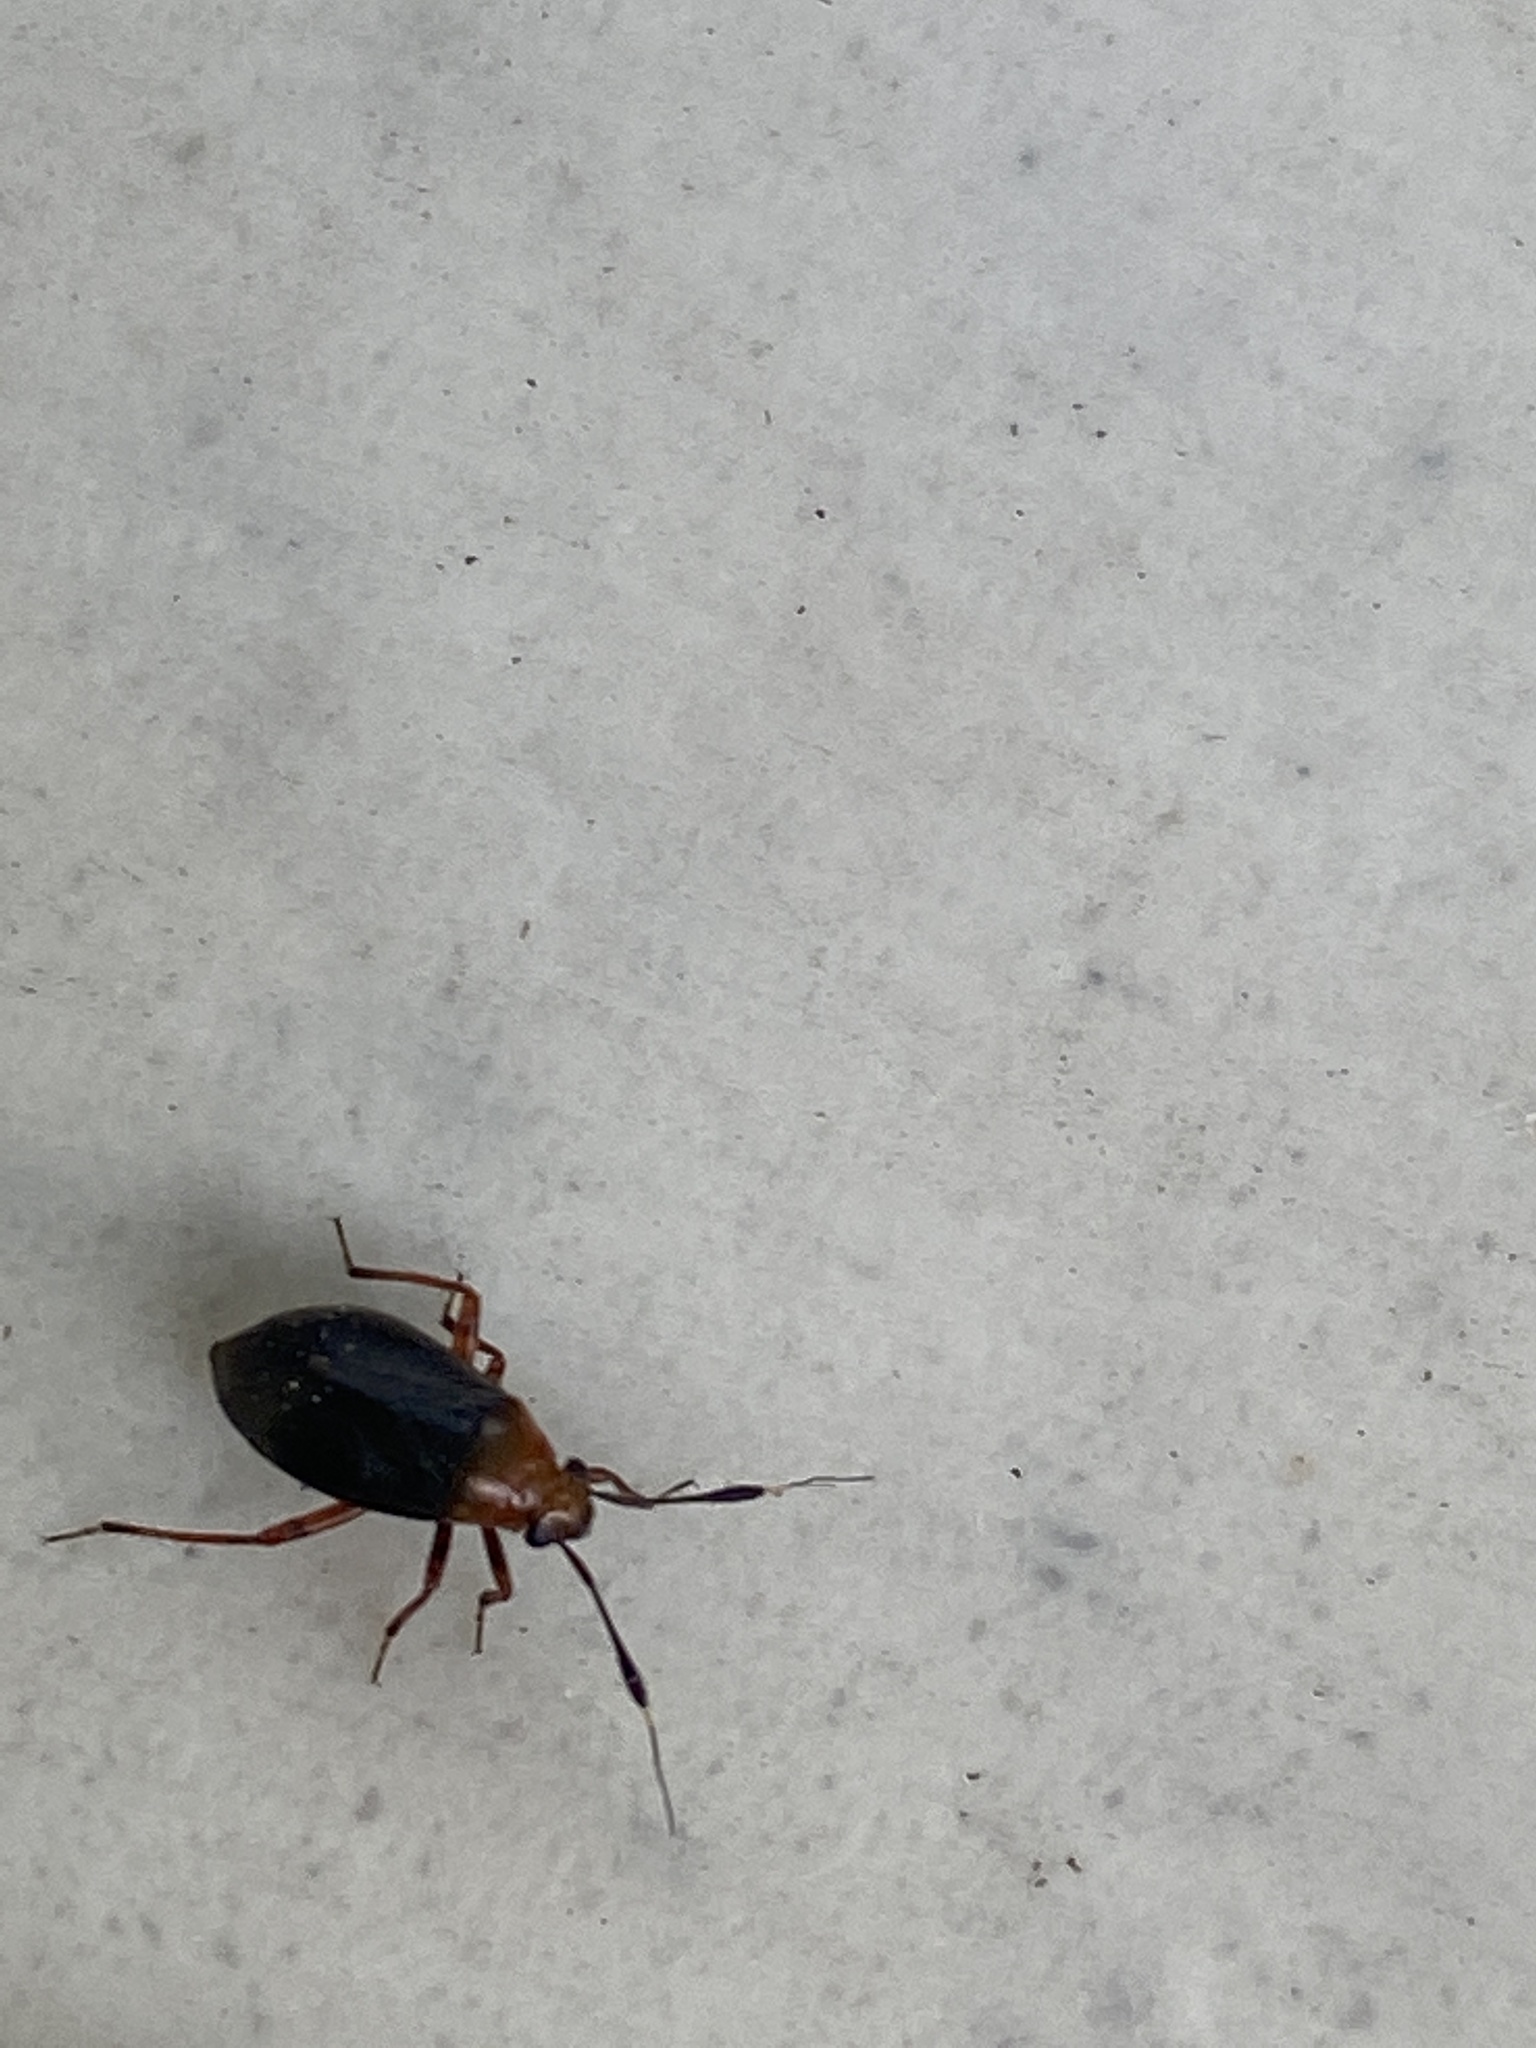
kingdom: Animalia
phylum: Arthropoda
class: Insecta
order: Hemiptera
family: Miridae
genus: Capsus
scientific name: Capsus ater
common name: Black plant bug
